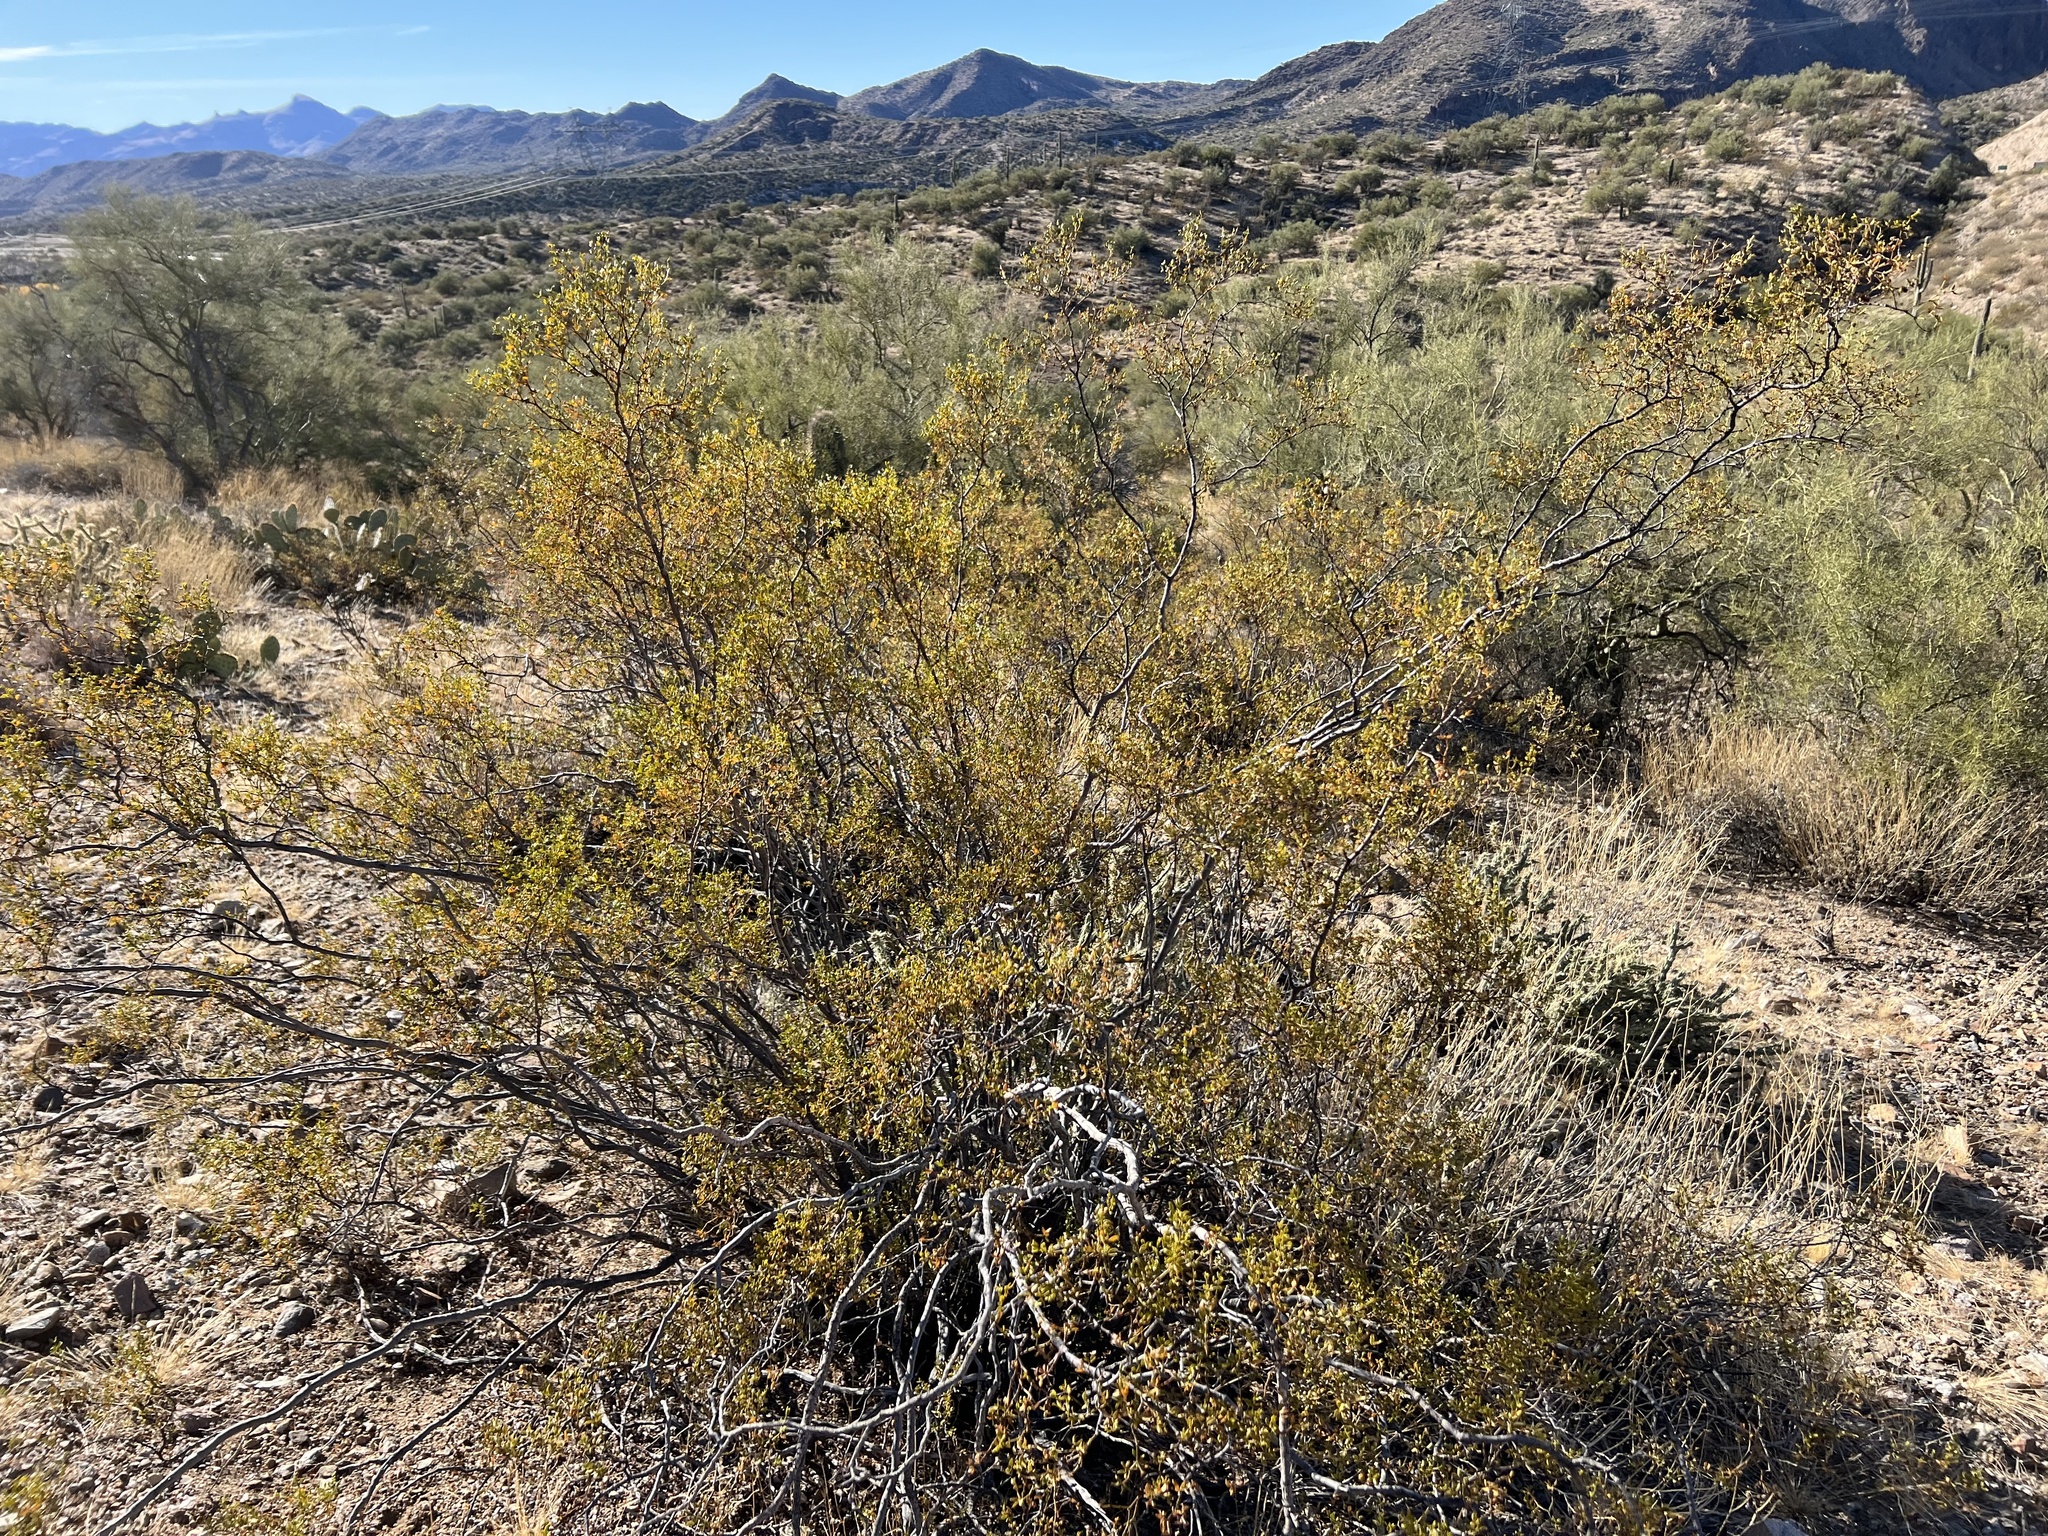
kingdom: Plantae
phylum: Tracheophyta
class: Magnoliopsida
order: Zygophyllales
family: Zygophyllaceae
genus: Larrea
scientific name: Larrea tridentata
